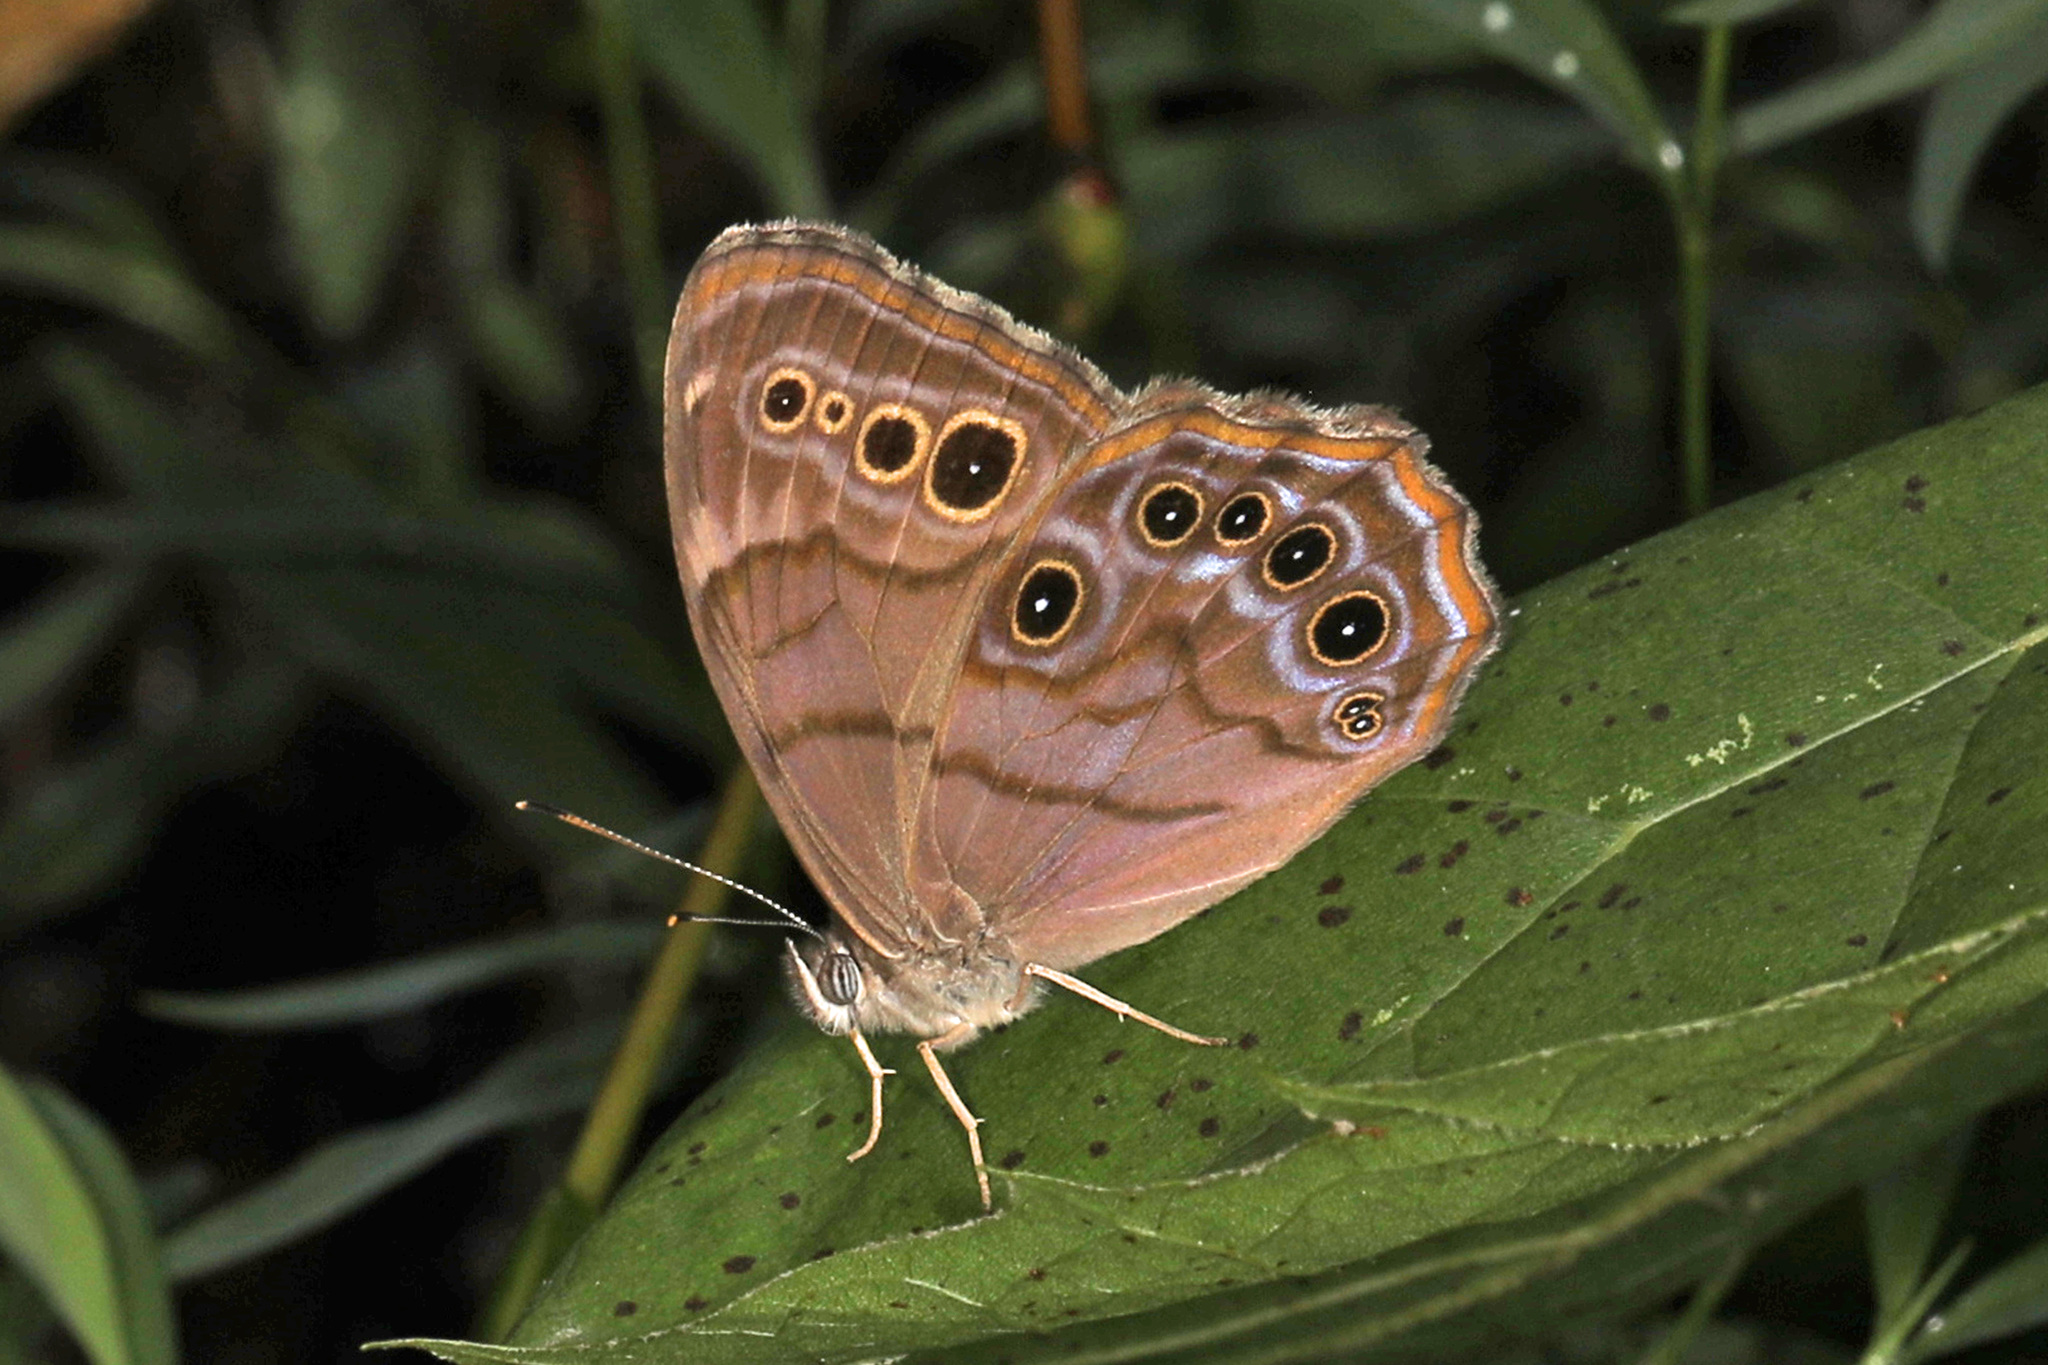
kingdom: Animalia
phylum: Arthropoda
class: Insecta
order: Lepidoptera
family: Nymphalidae
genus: Lethe
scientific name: Lethe anthedon
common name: Northern pearly-eye
